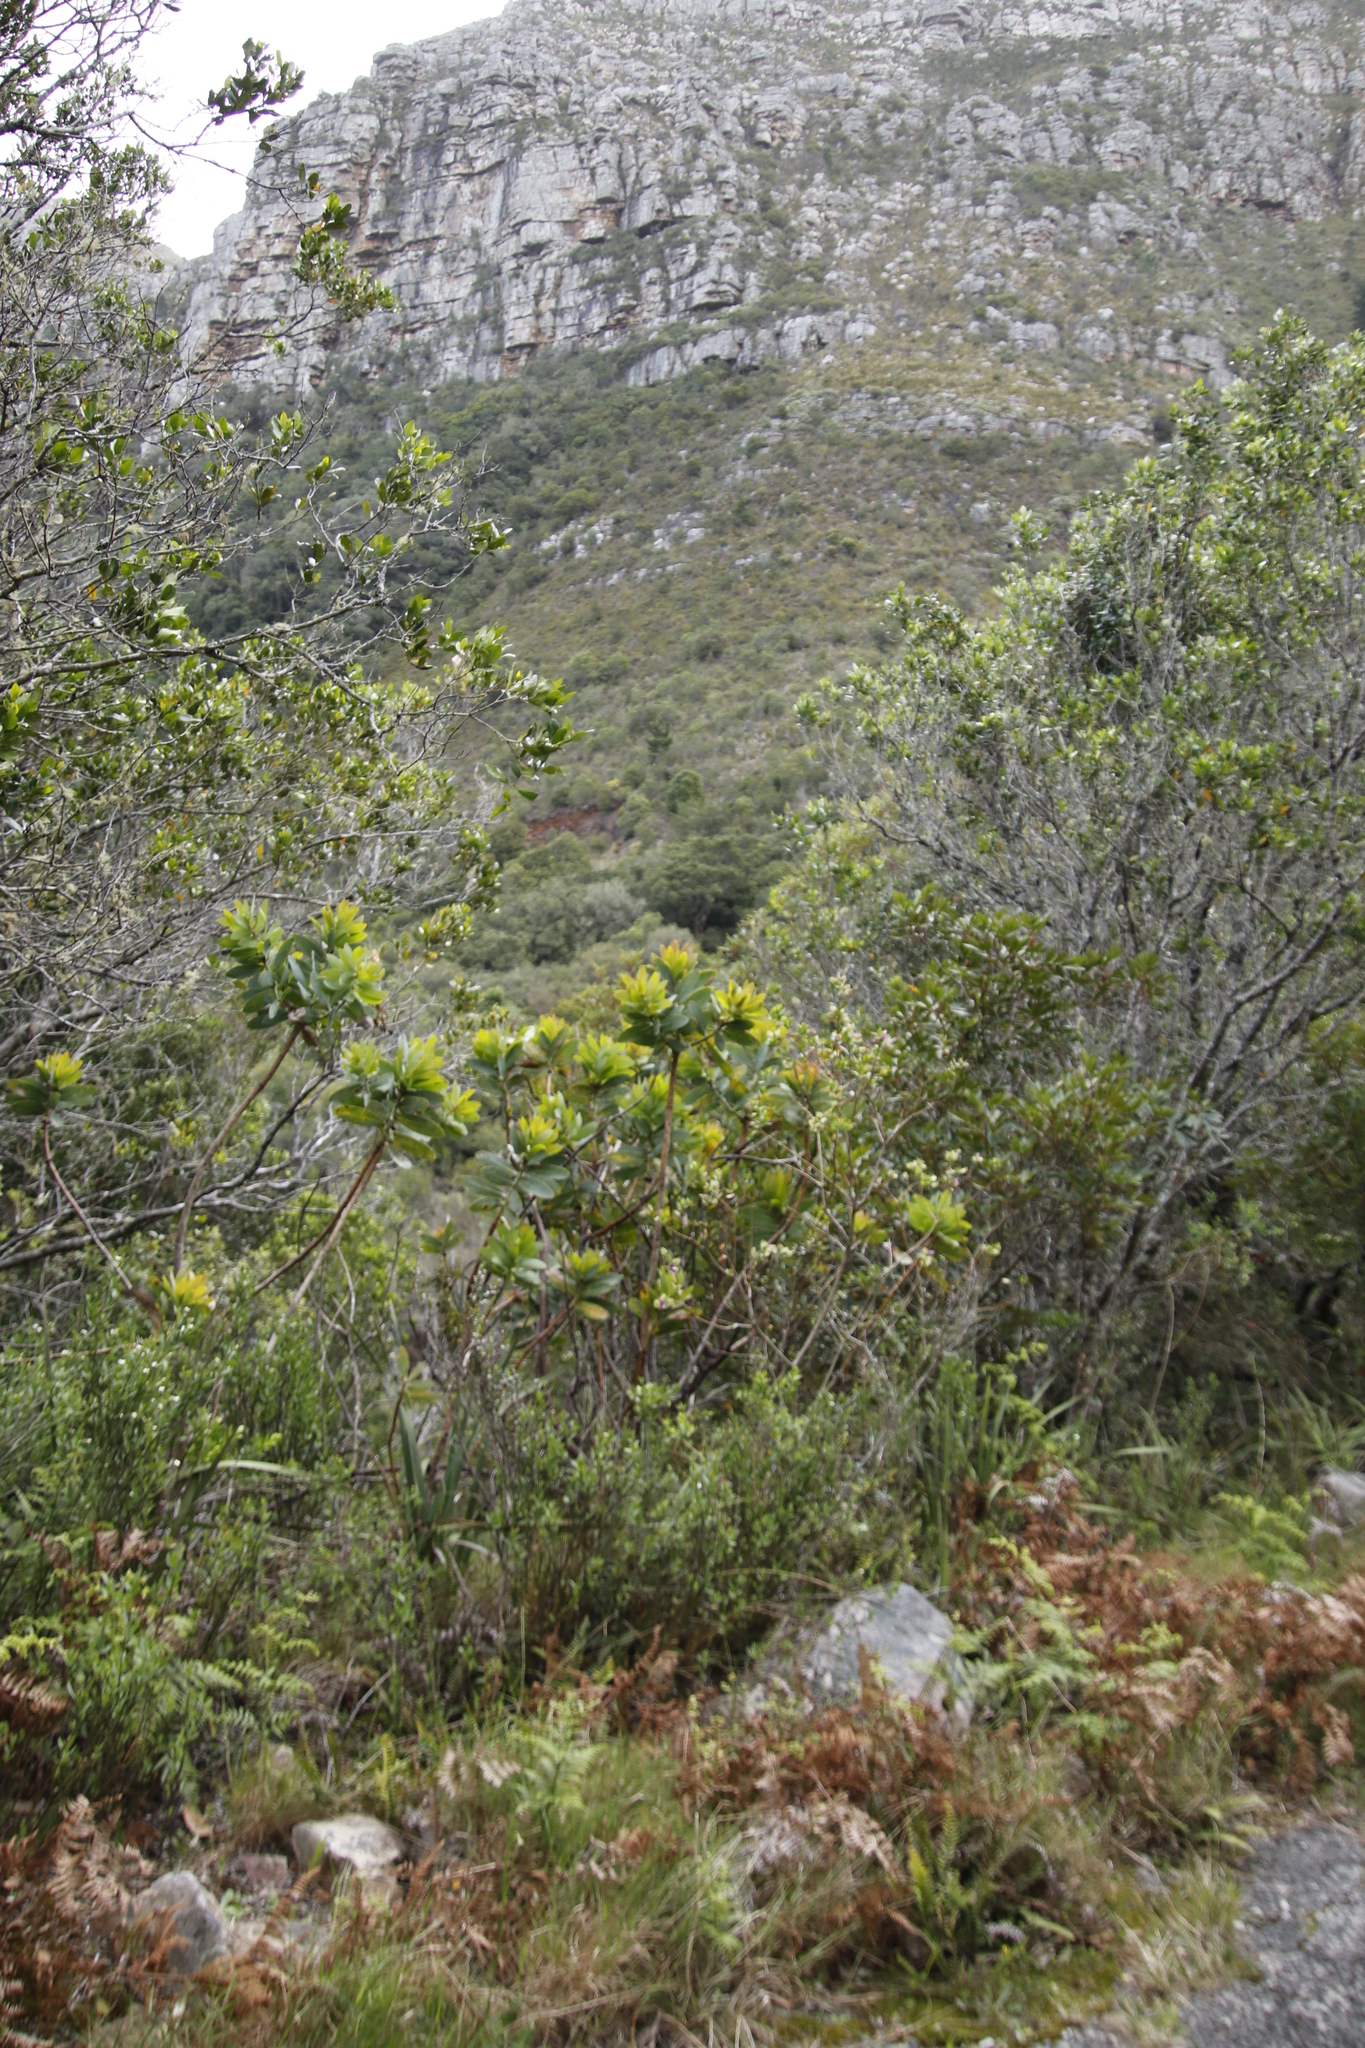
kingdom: Plantae
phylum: Tracheophyta
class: Magnoliopsida
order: Proteales
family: Proteaceae
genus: Protea
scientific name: Protea nitida
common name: Tree protea
